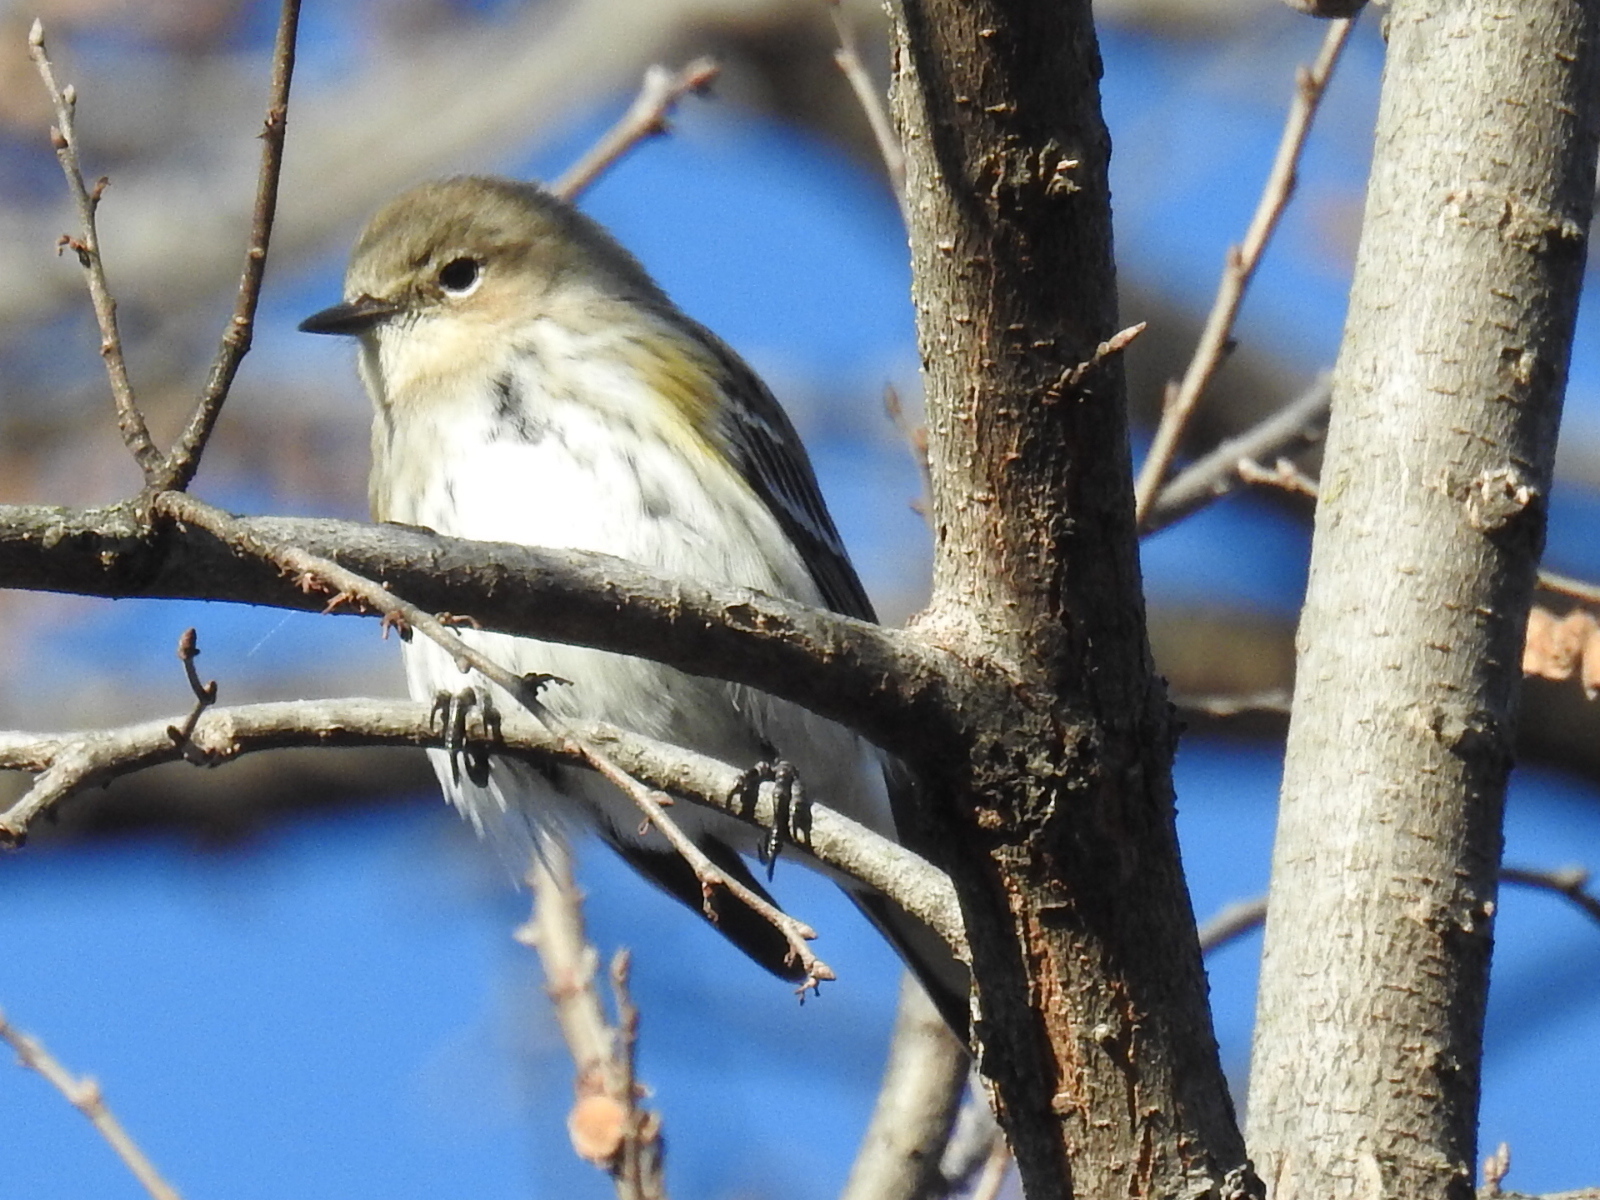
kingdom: Animalia
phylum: Chordata
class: Aves
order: Passeriformes
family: Parulidae
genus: Setophaga
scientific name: Setophaga coronata
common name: Myrtle warbler
